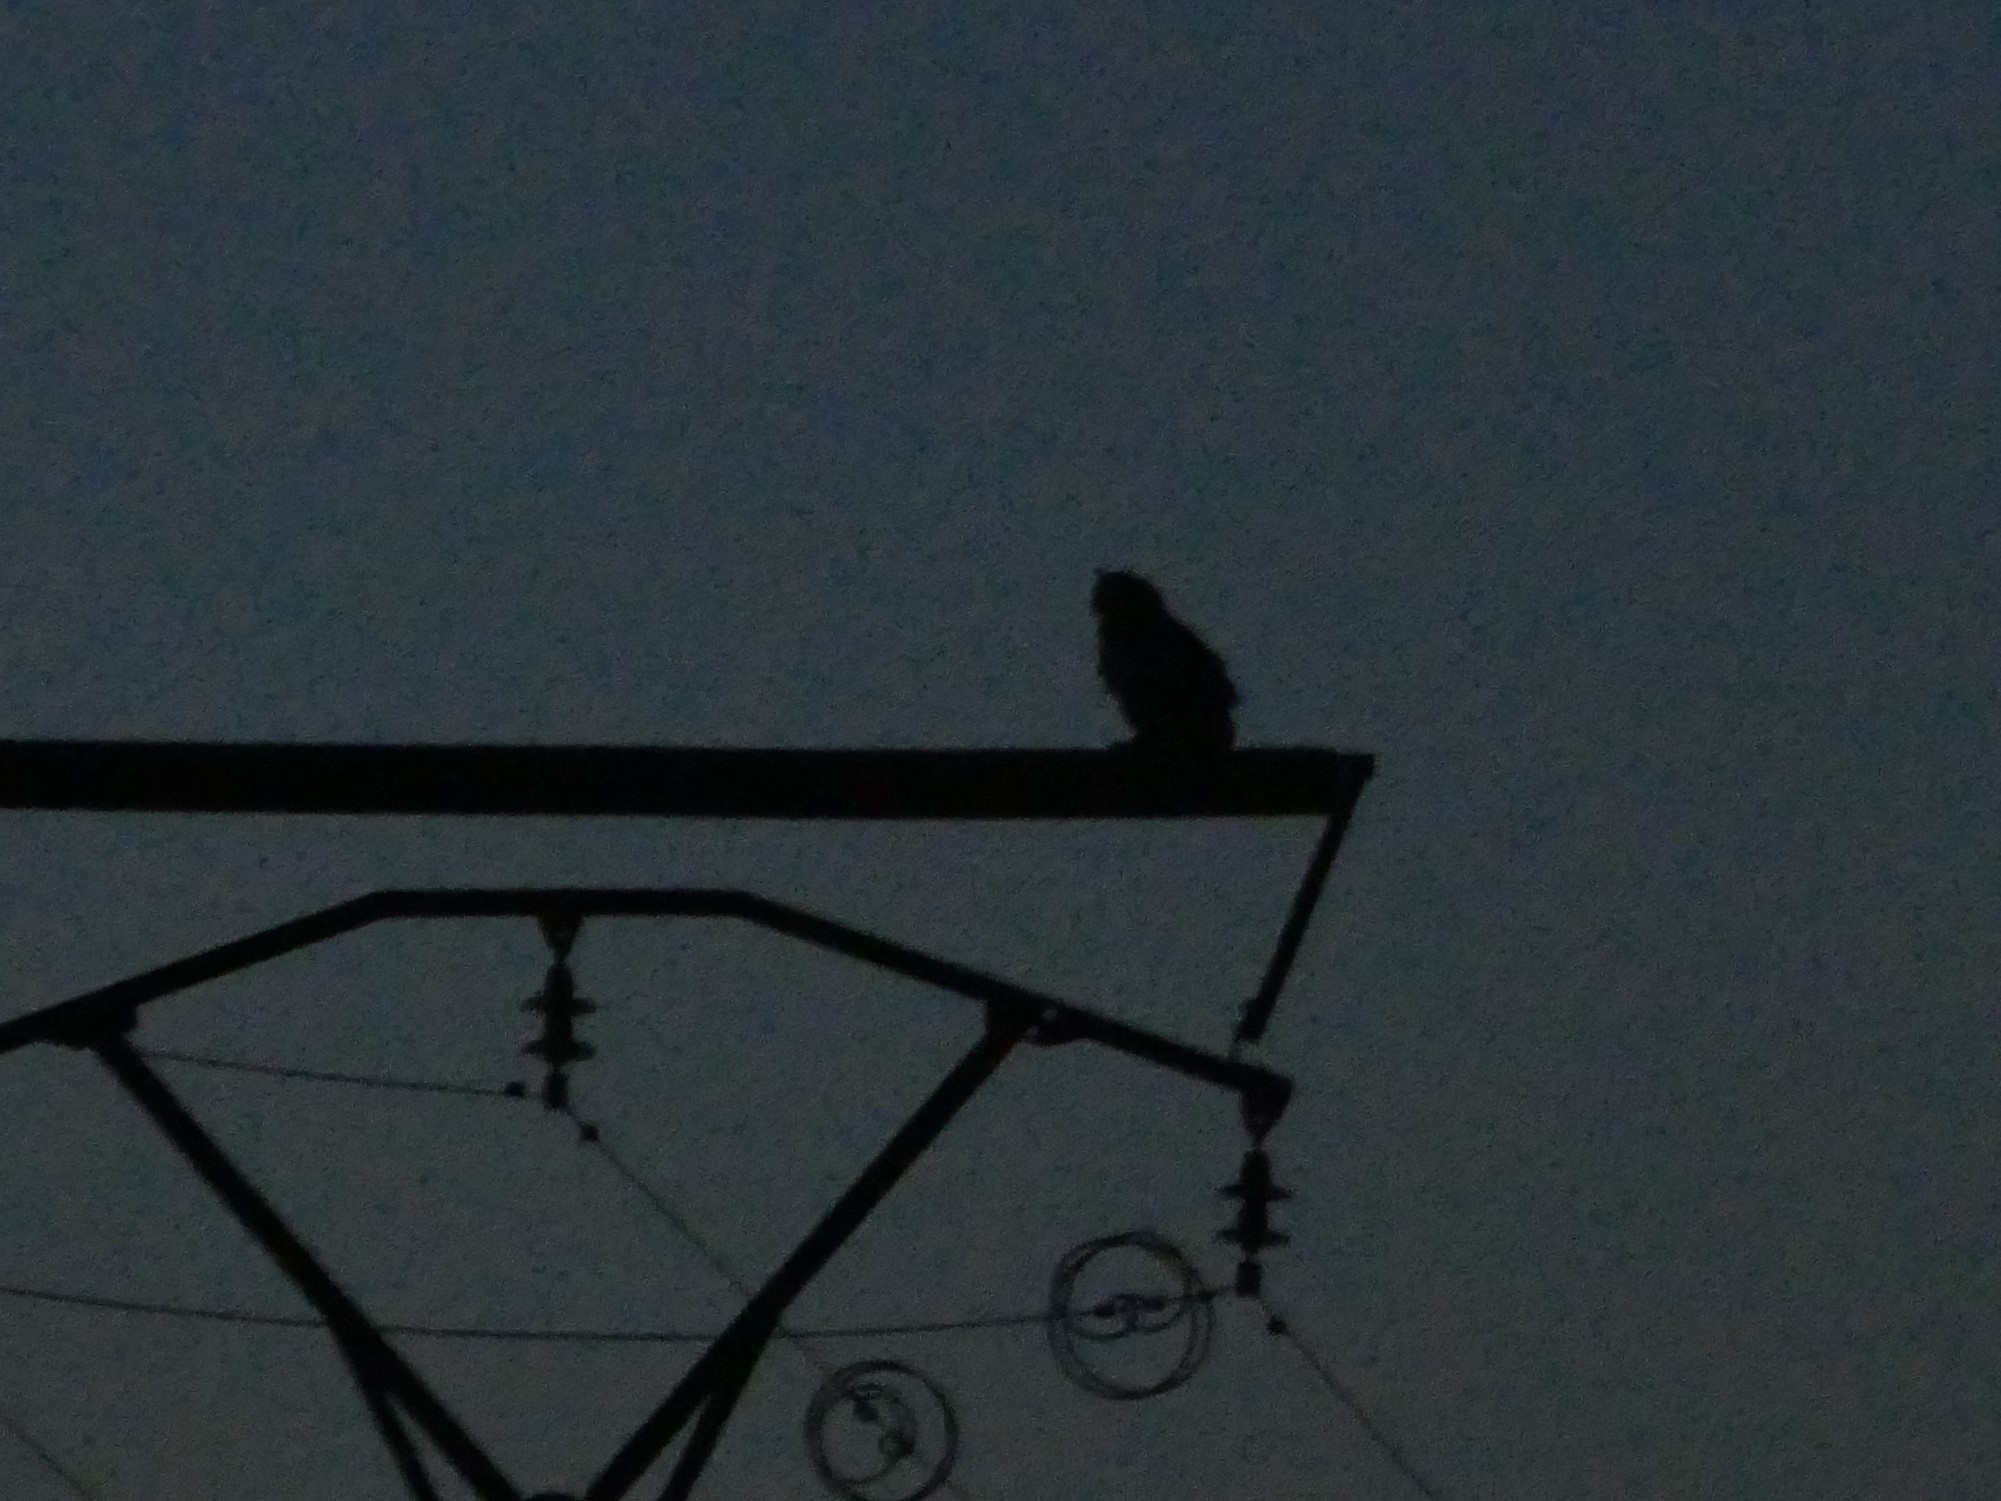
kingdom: Animalia
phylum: Chordata
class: Aves
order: Strigiformes
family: Strigidae
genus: Bubo
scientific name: Bubo bubo
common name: Eurasian eagle-owl
